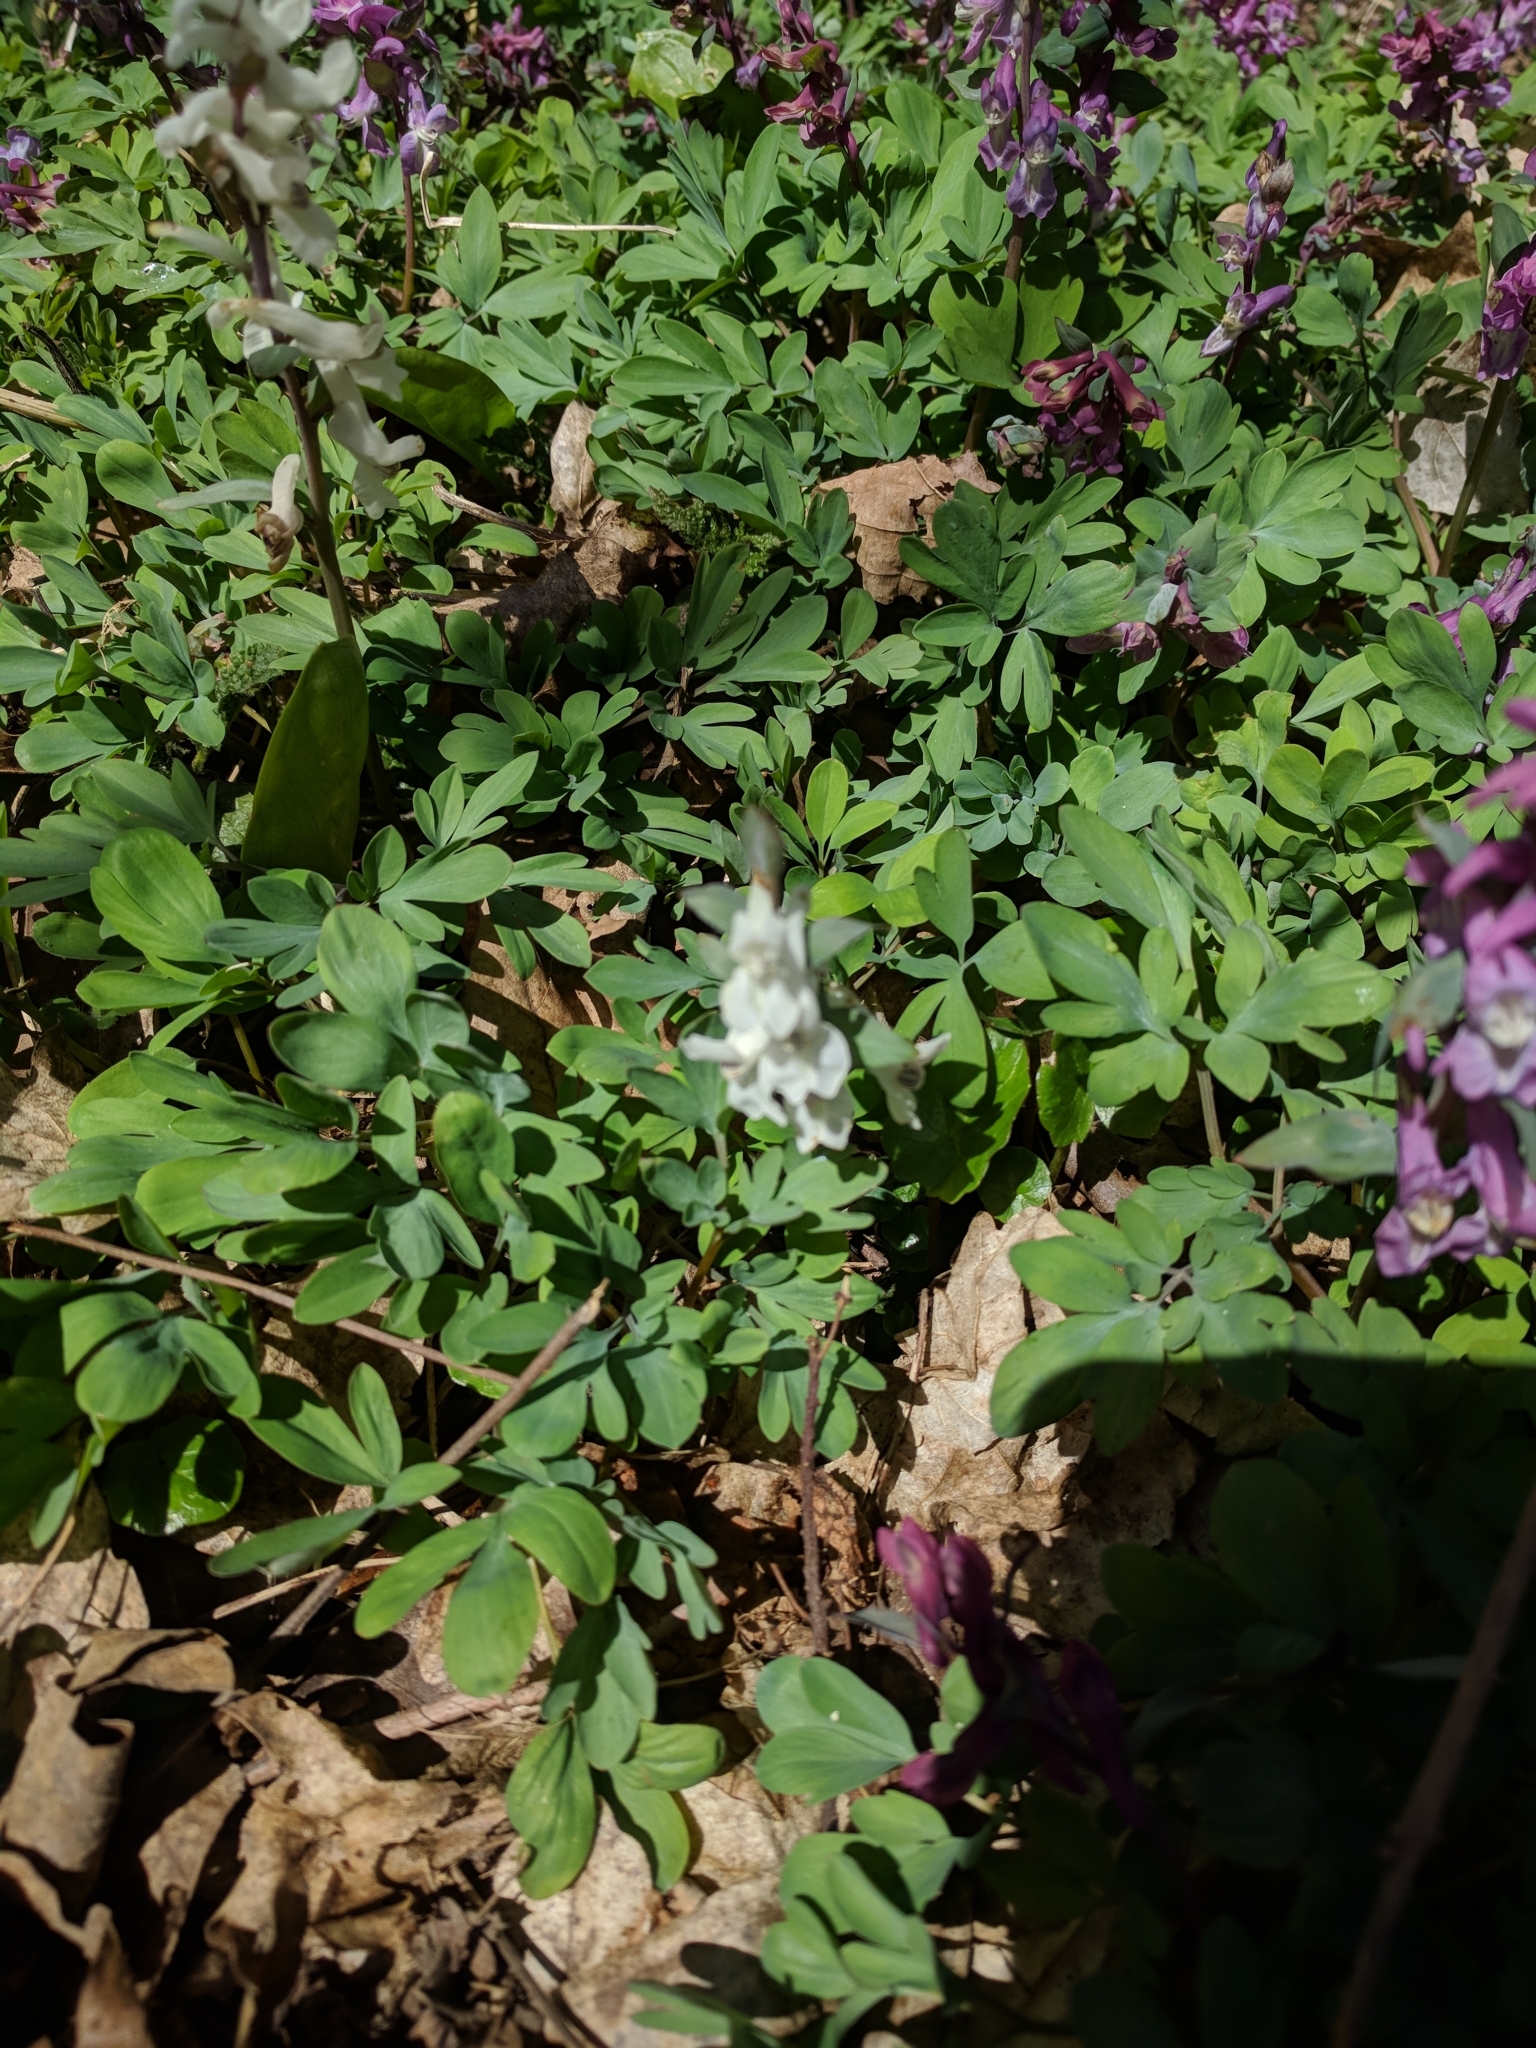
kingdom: Plantae
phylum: Tracheophyta
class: Magnoliopsida
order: Ranunculales
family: Papaveraceae
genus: Corydalis
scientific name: Corydalis cava
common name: Hollowroot
